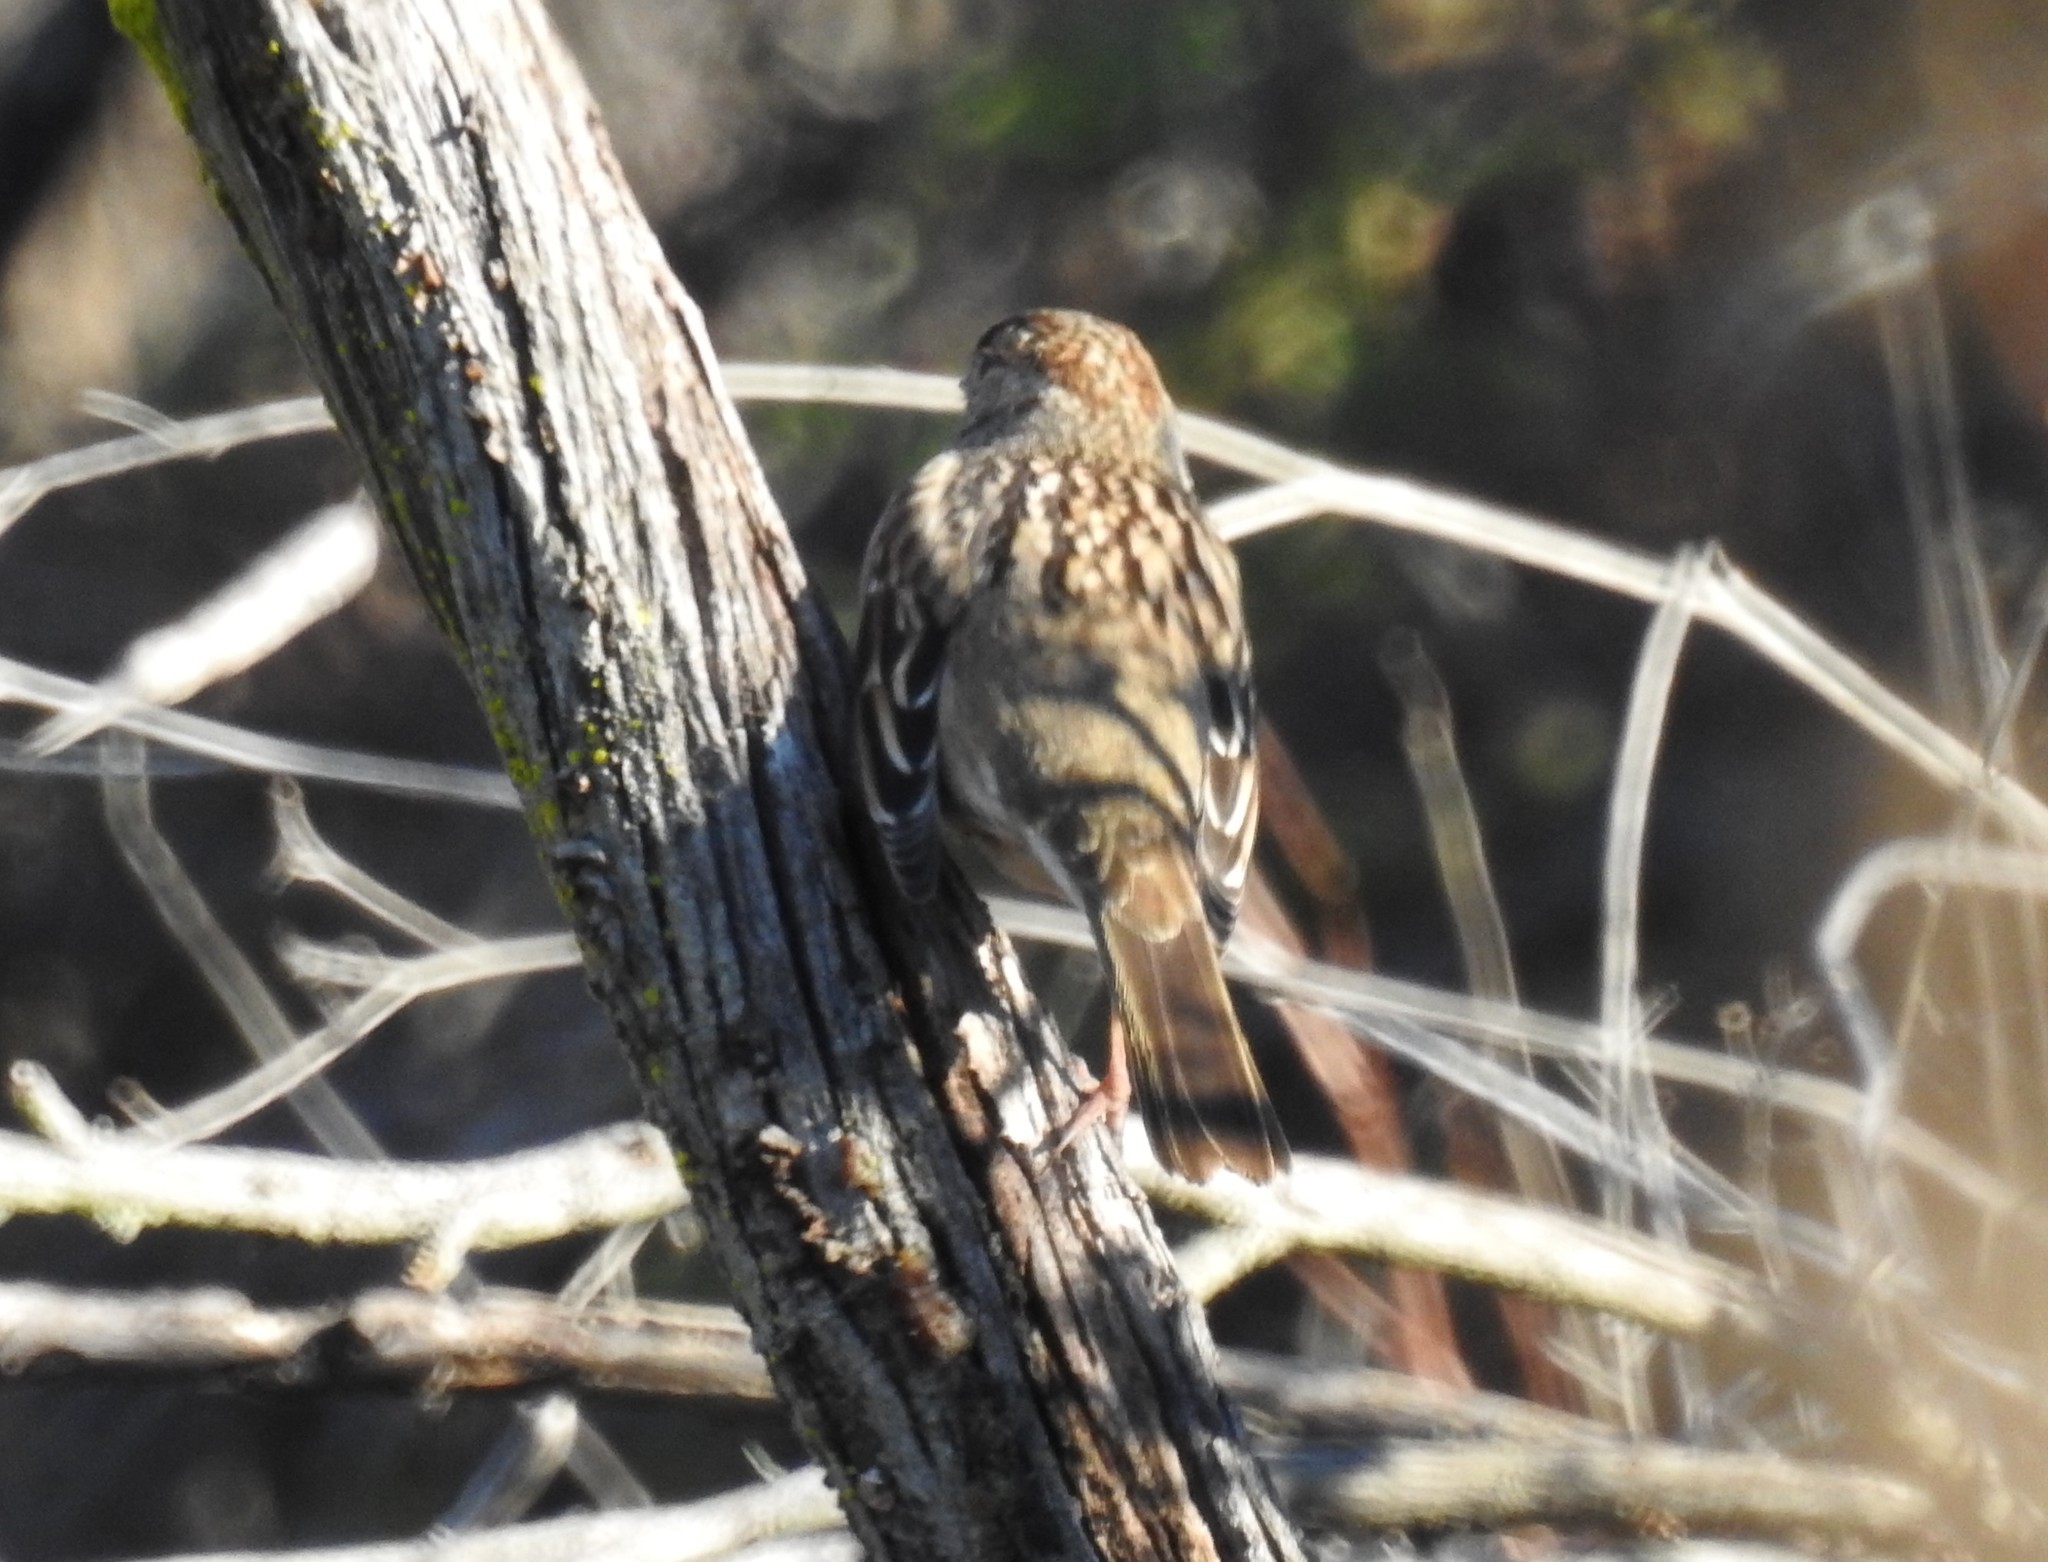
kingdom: Animalia
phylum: Chordata
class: Aves
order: Passeriformes
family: Passerellidae
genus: Zonotrichia
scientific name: Zonotrichia atricapilla
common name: Golden-crowned sparrow
